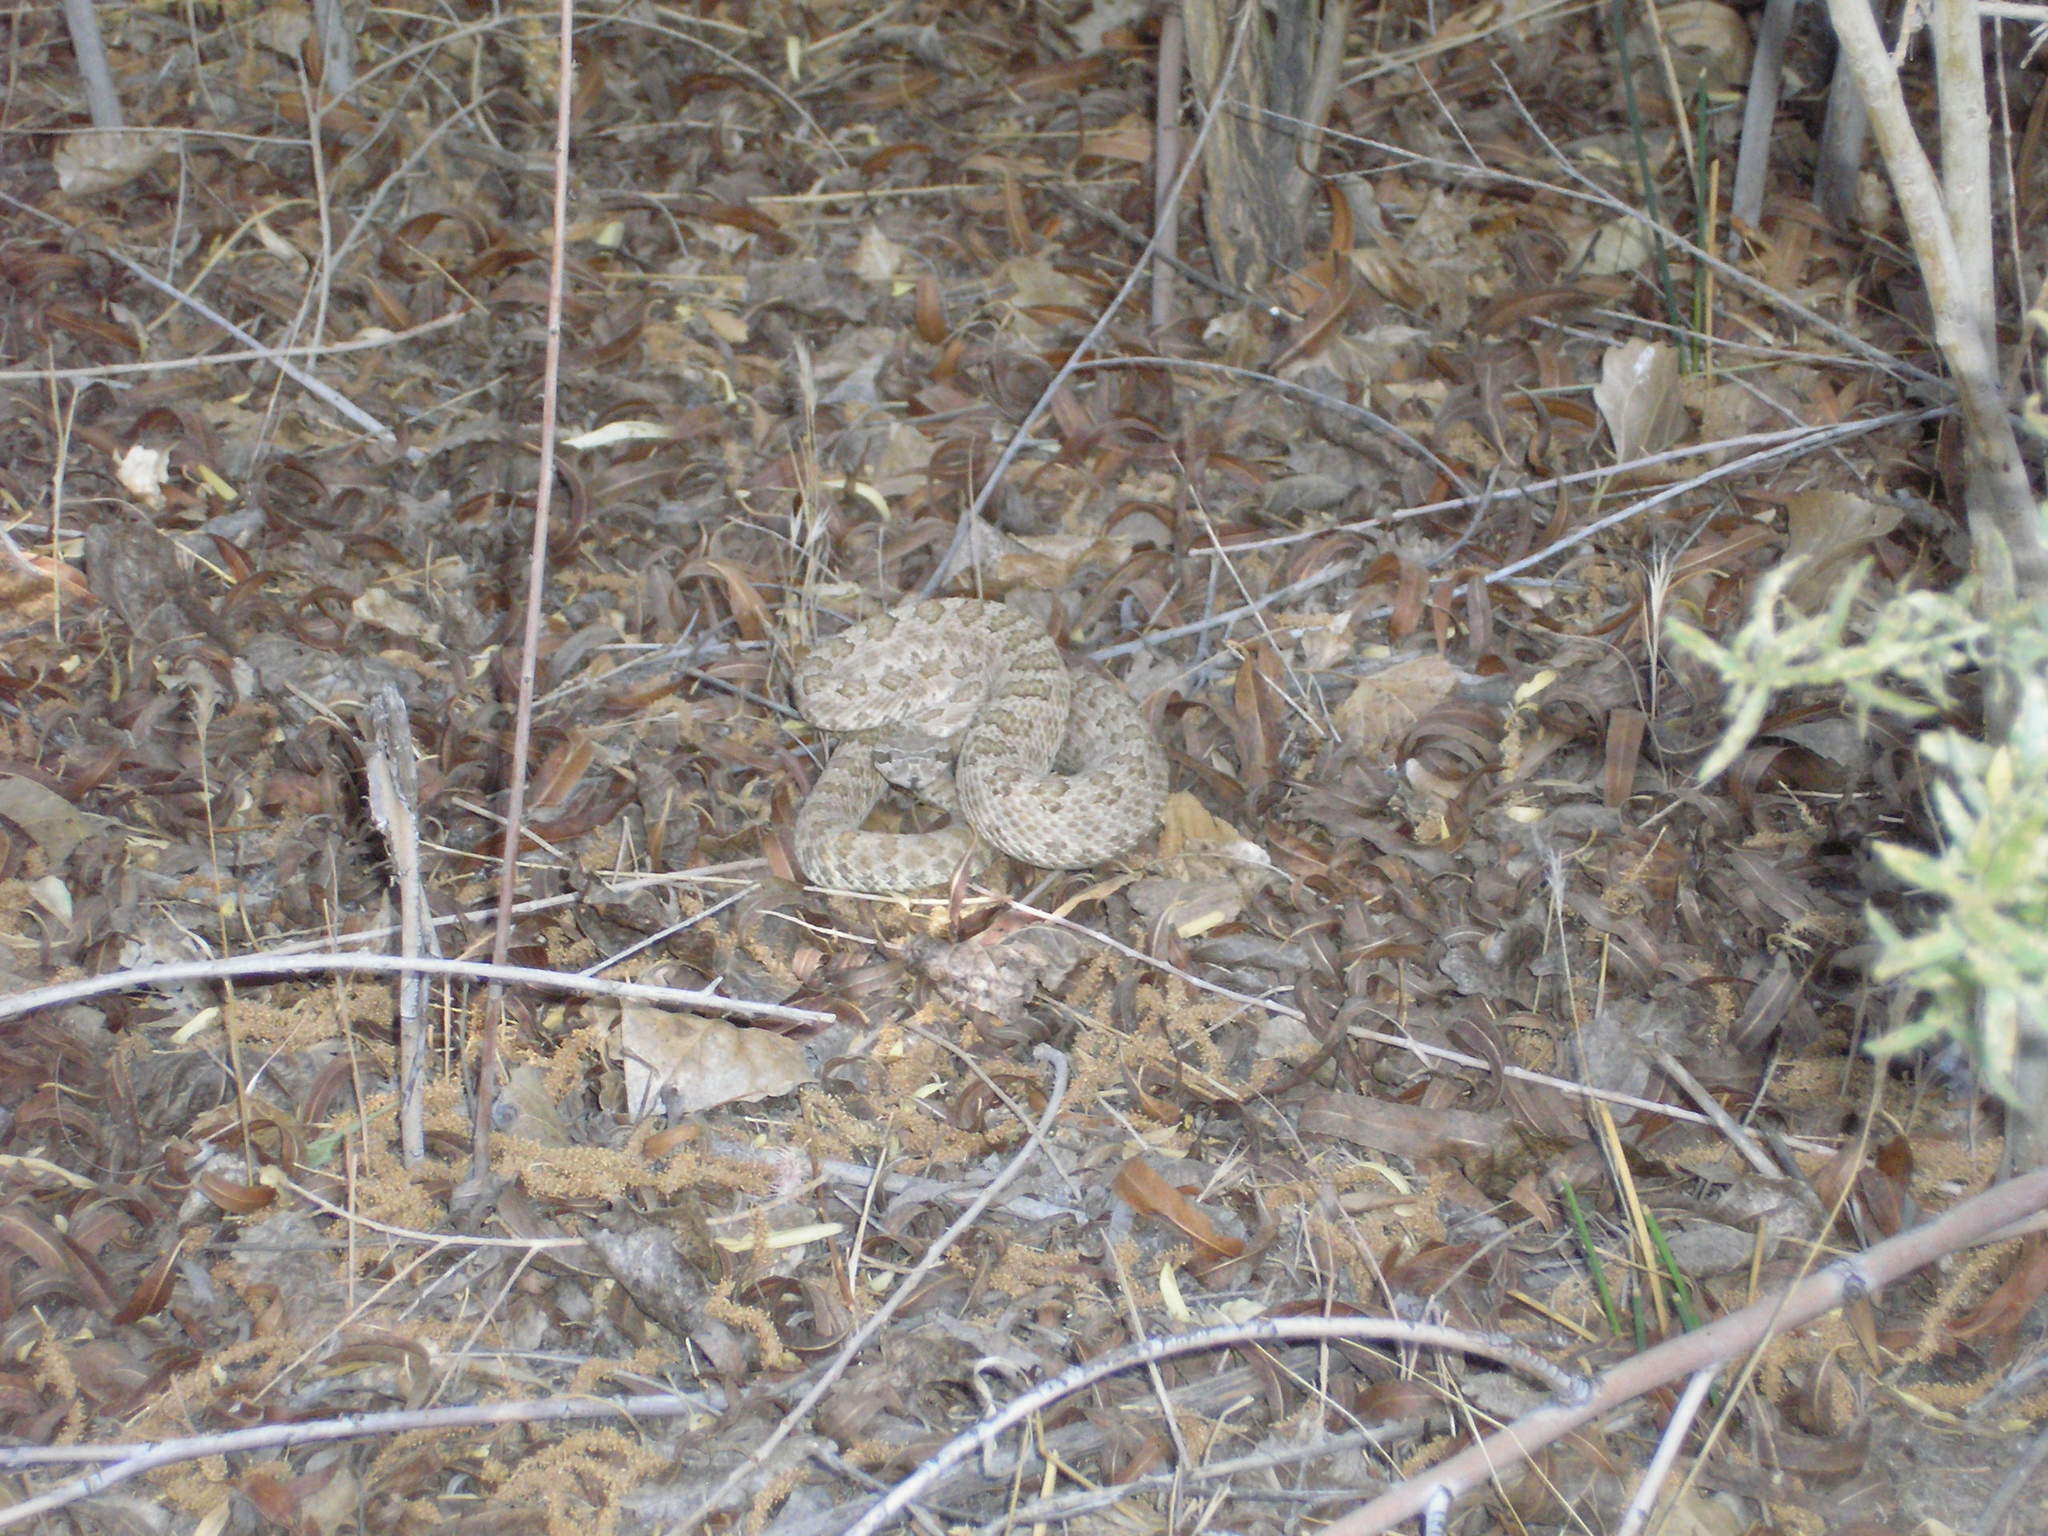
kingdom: Animalia
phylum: Chordata
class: Squamata
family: Viperidae
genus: Crotalus
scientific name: Crotalus oreganus
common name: Abyssus
